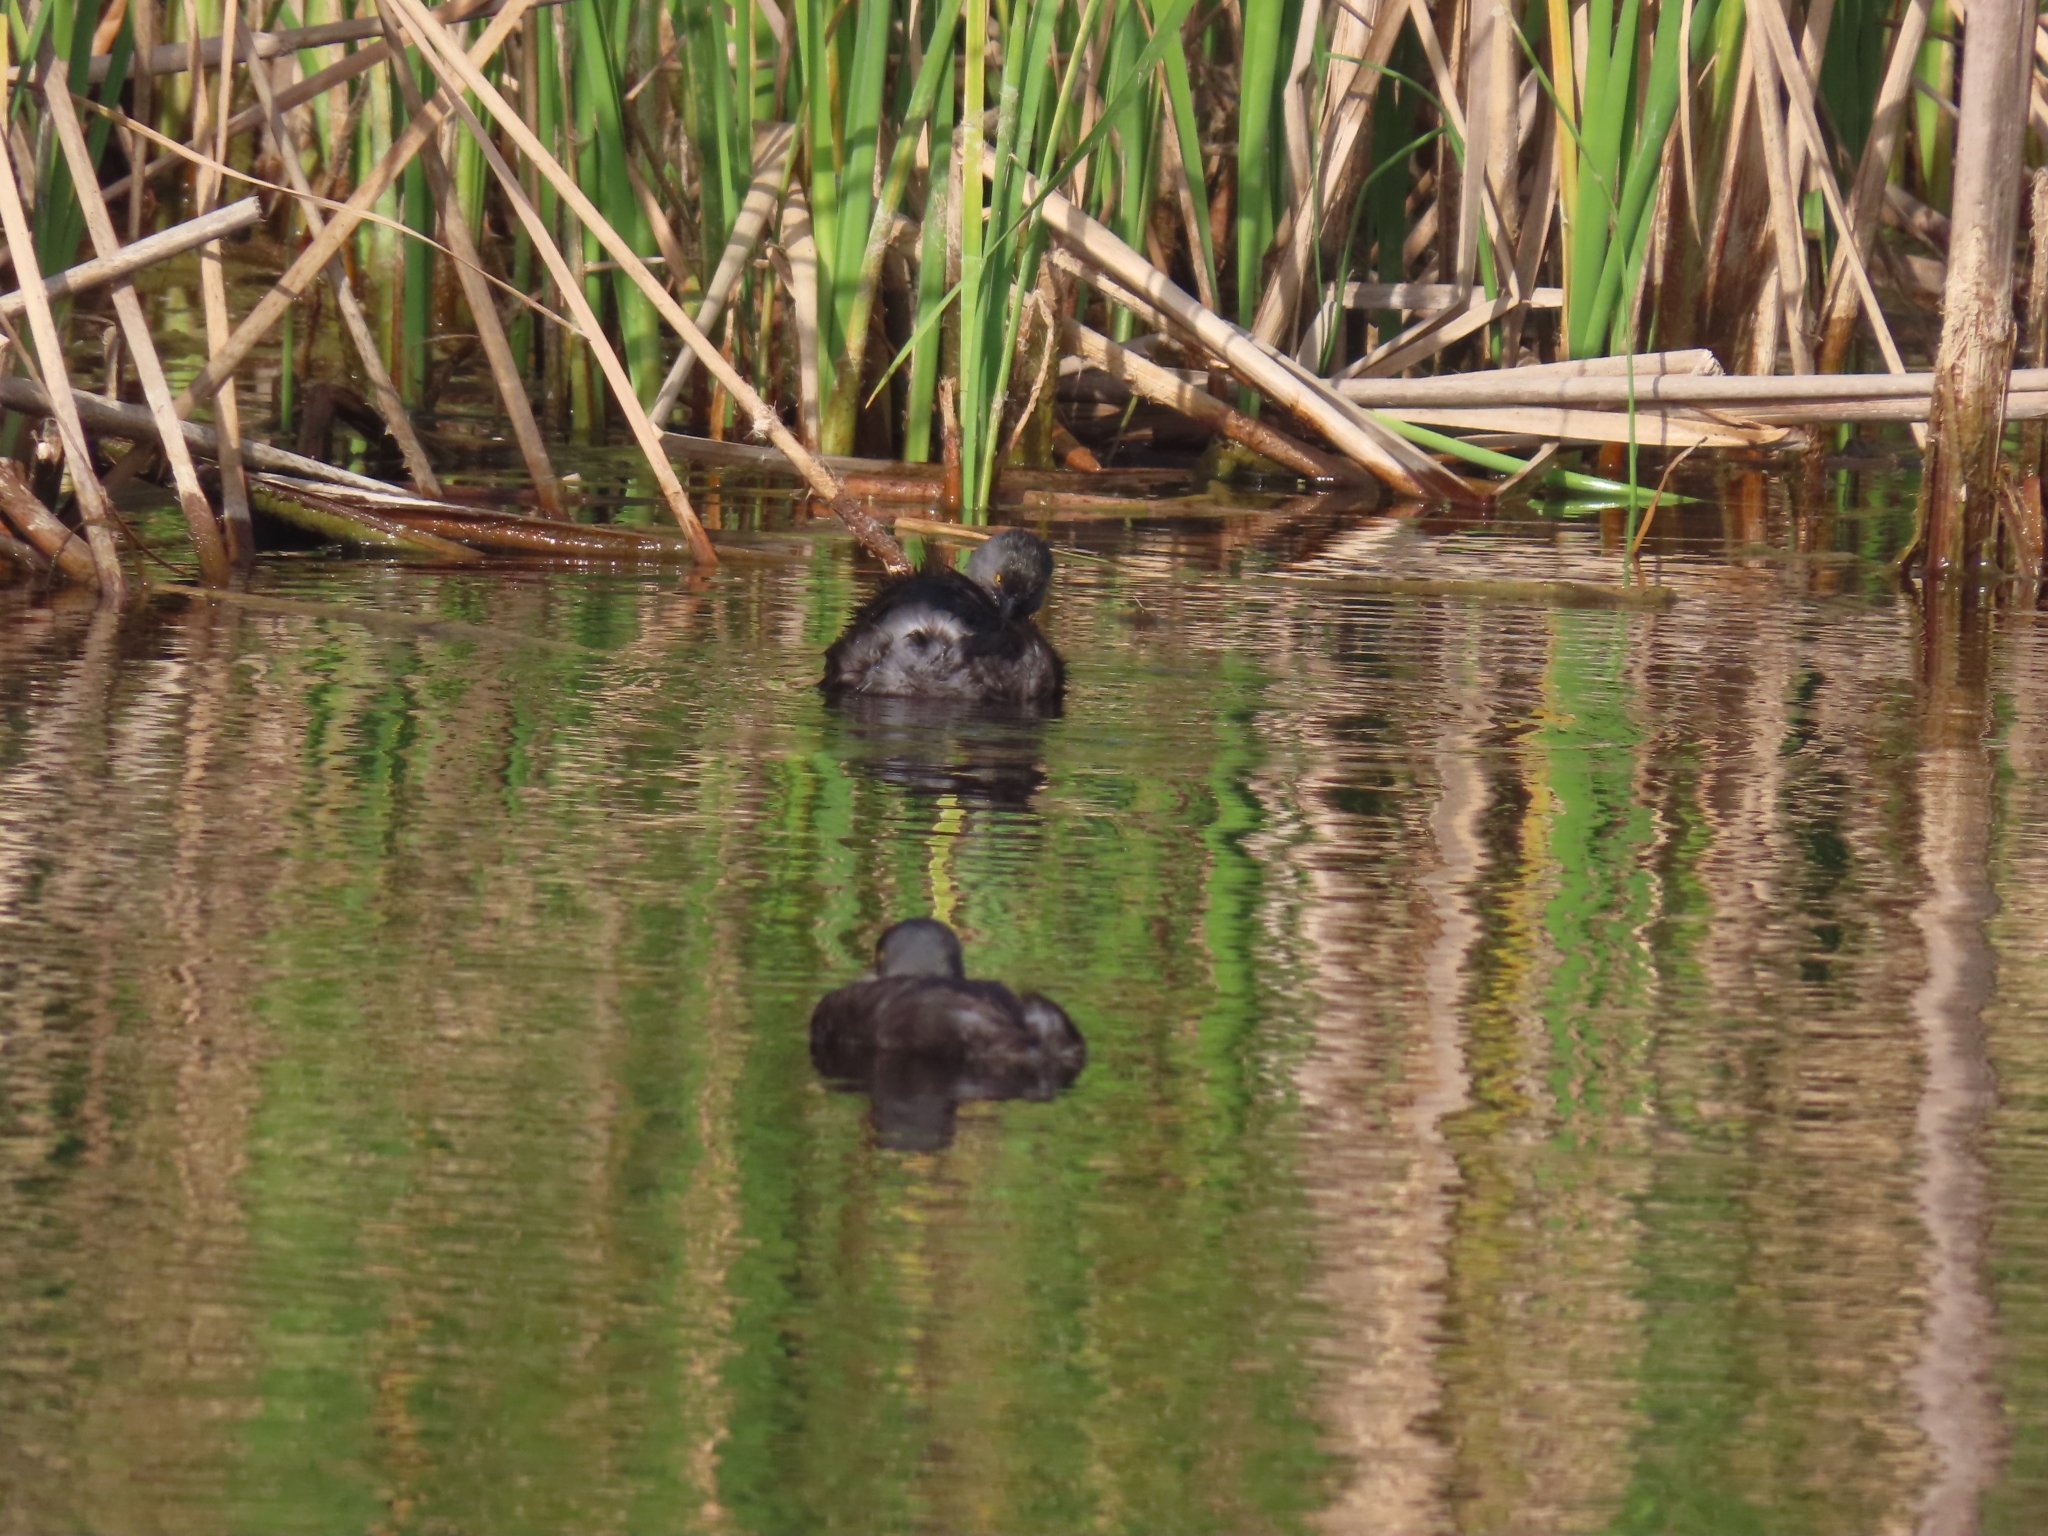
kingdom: Animalia
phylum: Chordata
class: Aves
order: Podicipediformes
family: Podicipedidae
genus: Tachybaptus
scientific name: Tachybaptus dominicus
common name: Least grebe
